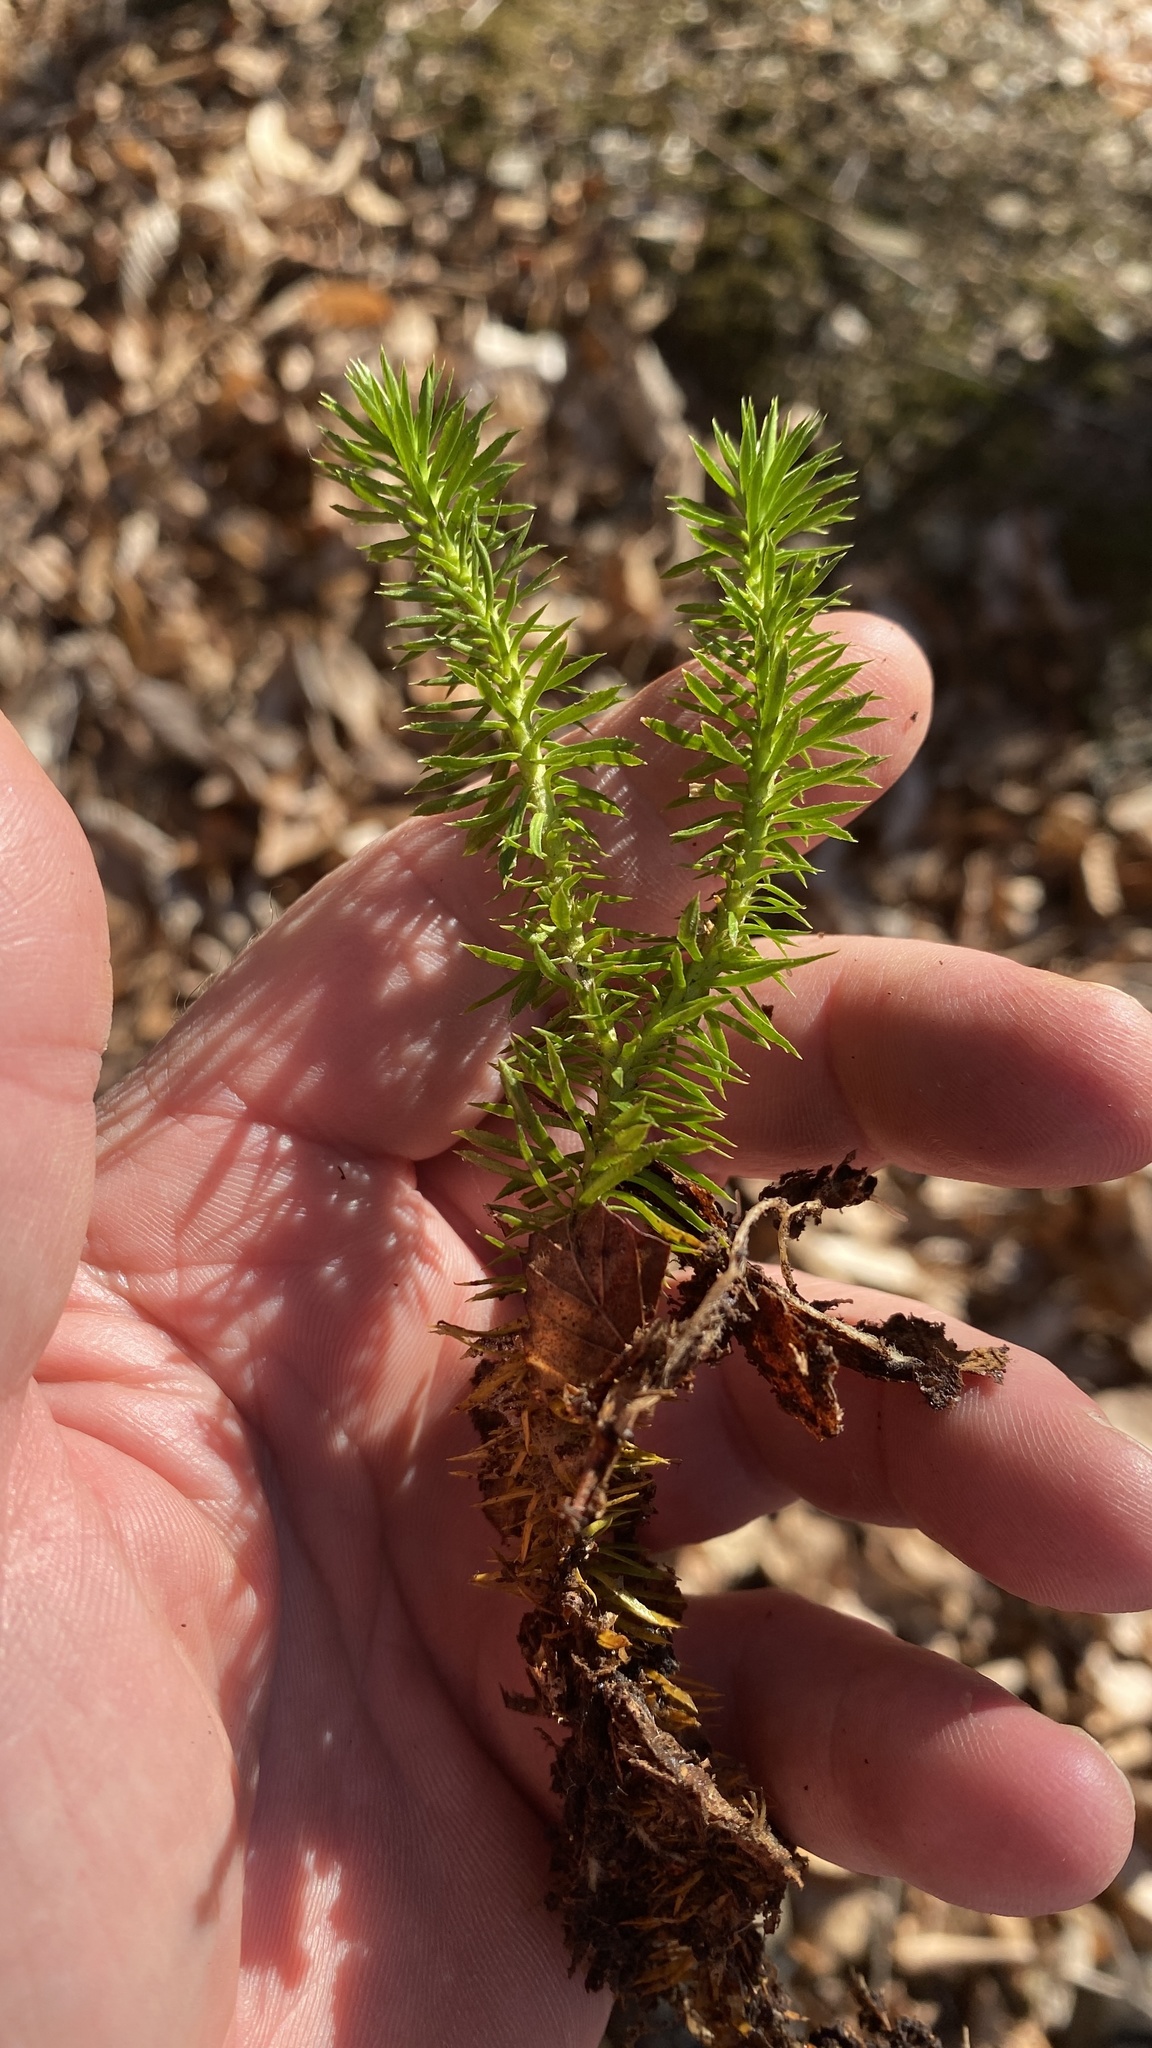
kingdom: Plantae
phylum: Tracheophyta
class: Lycopodiopsida
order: Lycopodiales
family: Lycopodiaceae
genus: Huperzia
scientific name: Huperzia lucidula
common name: Shining clubmoss
